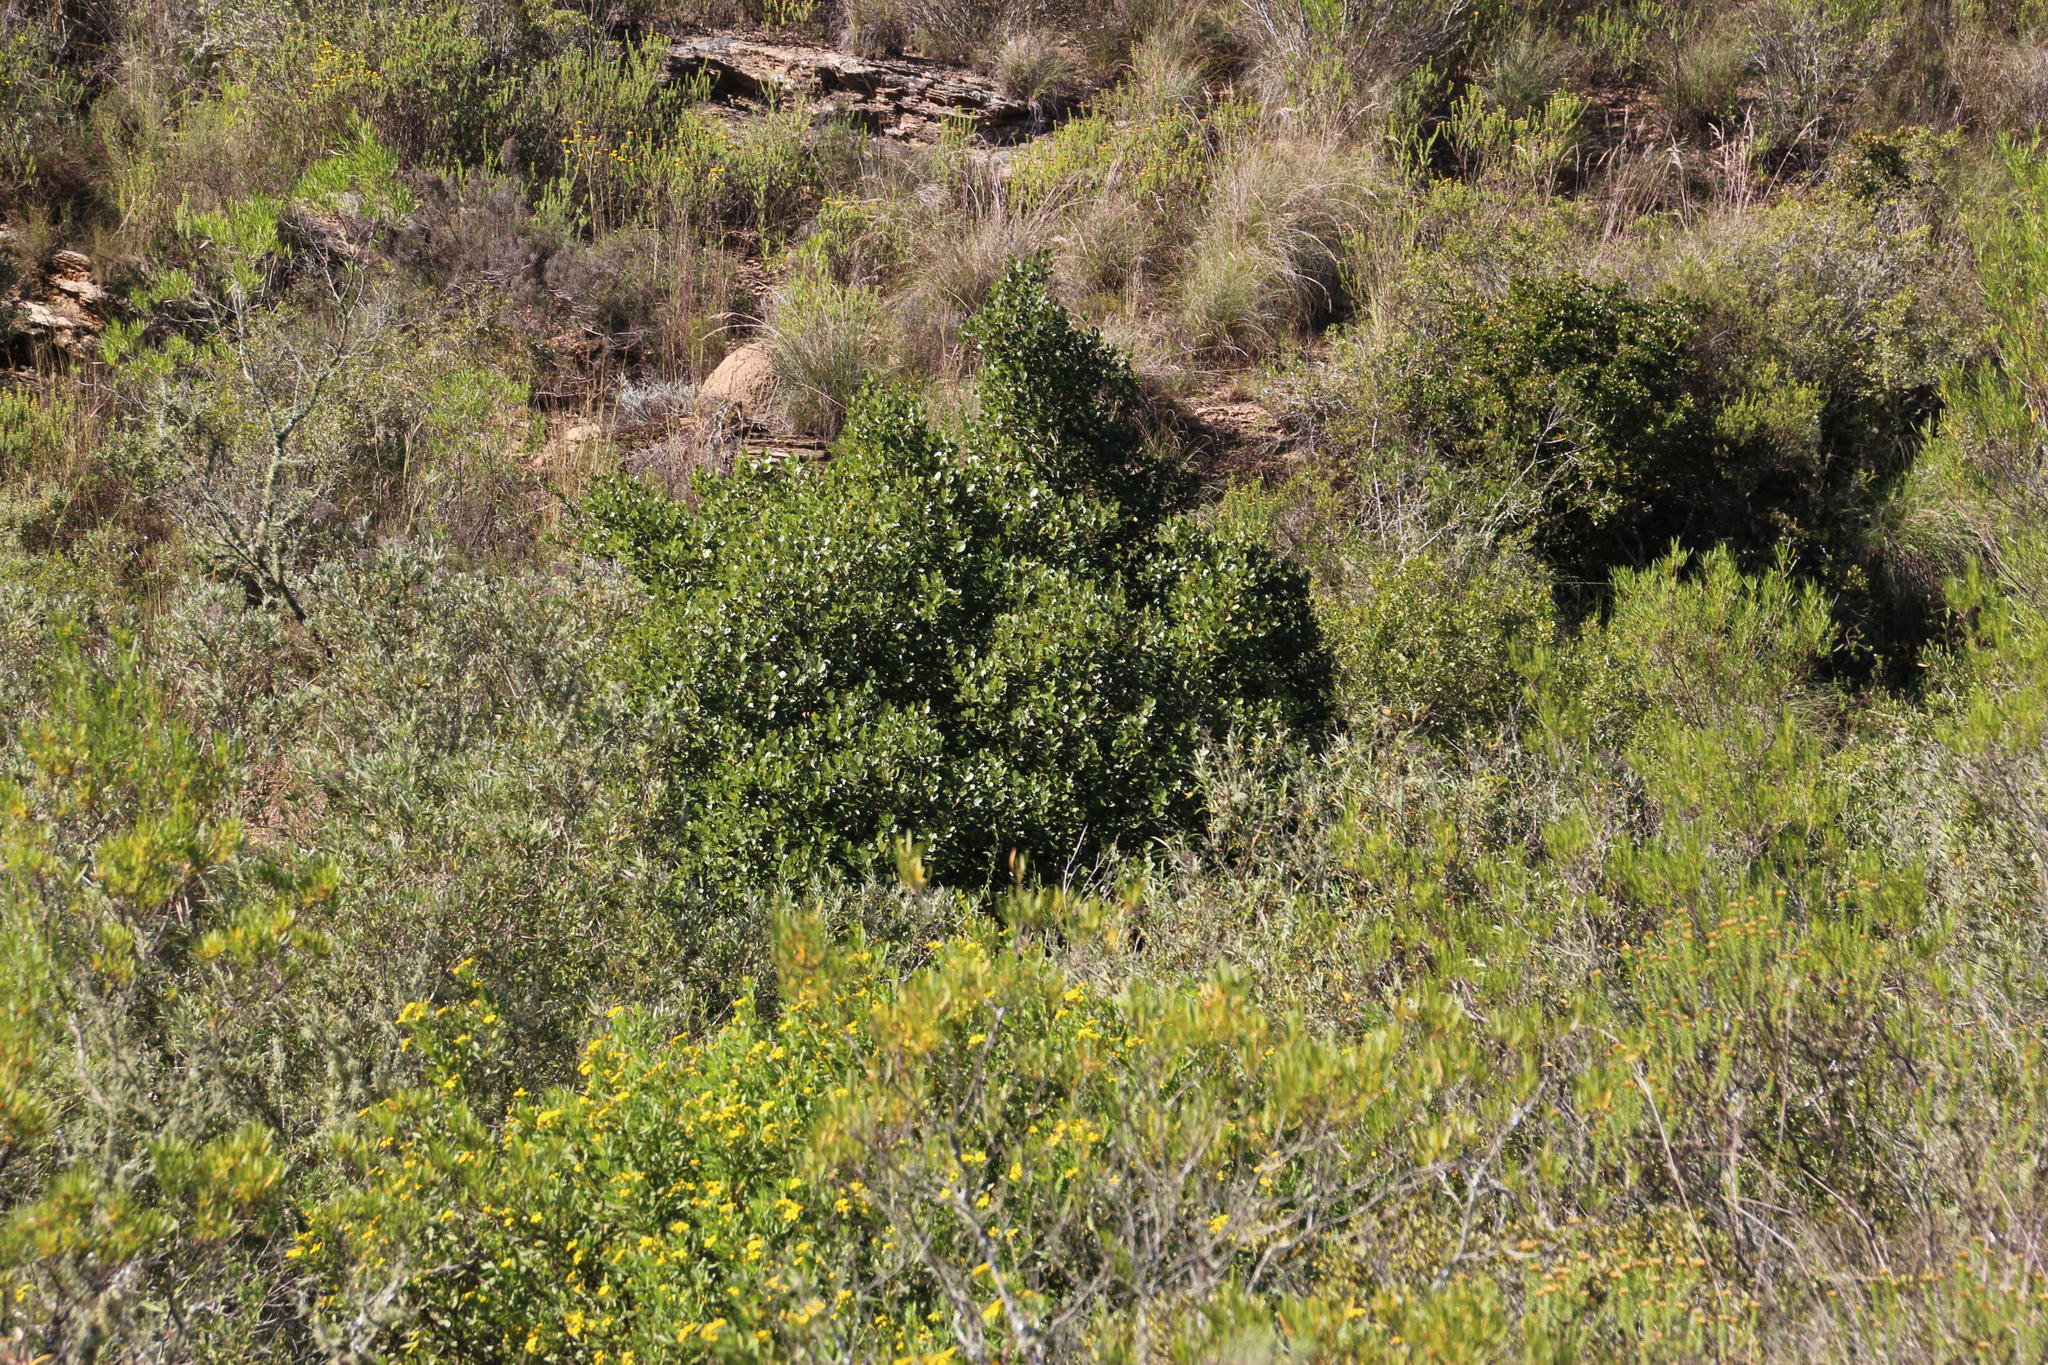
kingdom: Plantae
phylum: Tracheophyta
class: Magnoliopsida
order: Ericales
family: Sapotaceae
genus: Sideroxylon
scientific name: Sideroxylon inerme
